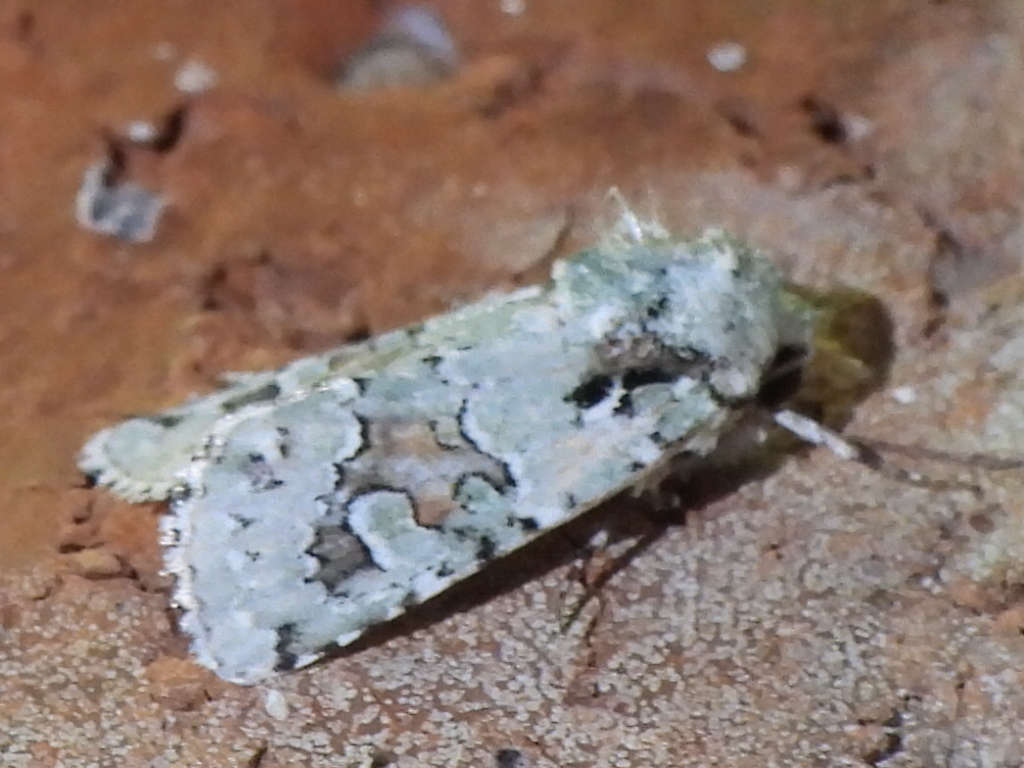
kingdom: Animalia
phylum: Arthropoda
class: Insecta
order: Lepidoptera
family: Noctuidae
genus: Lacinipolia
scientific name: Lacinipolia laudabilis
